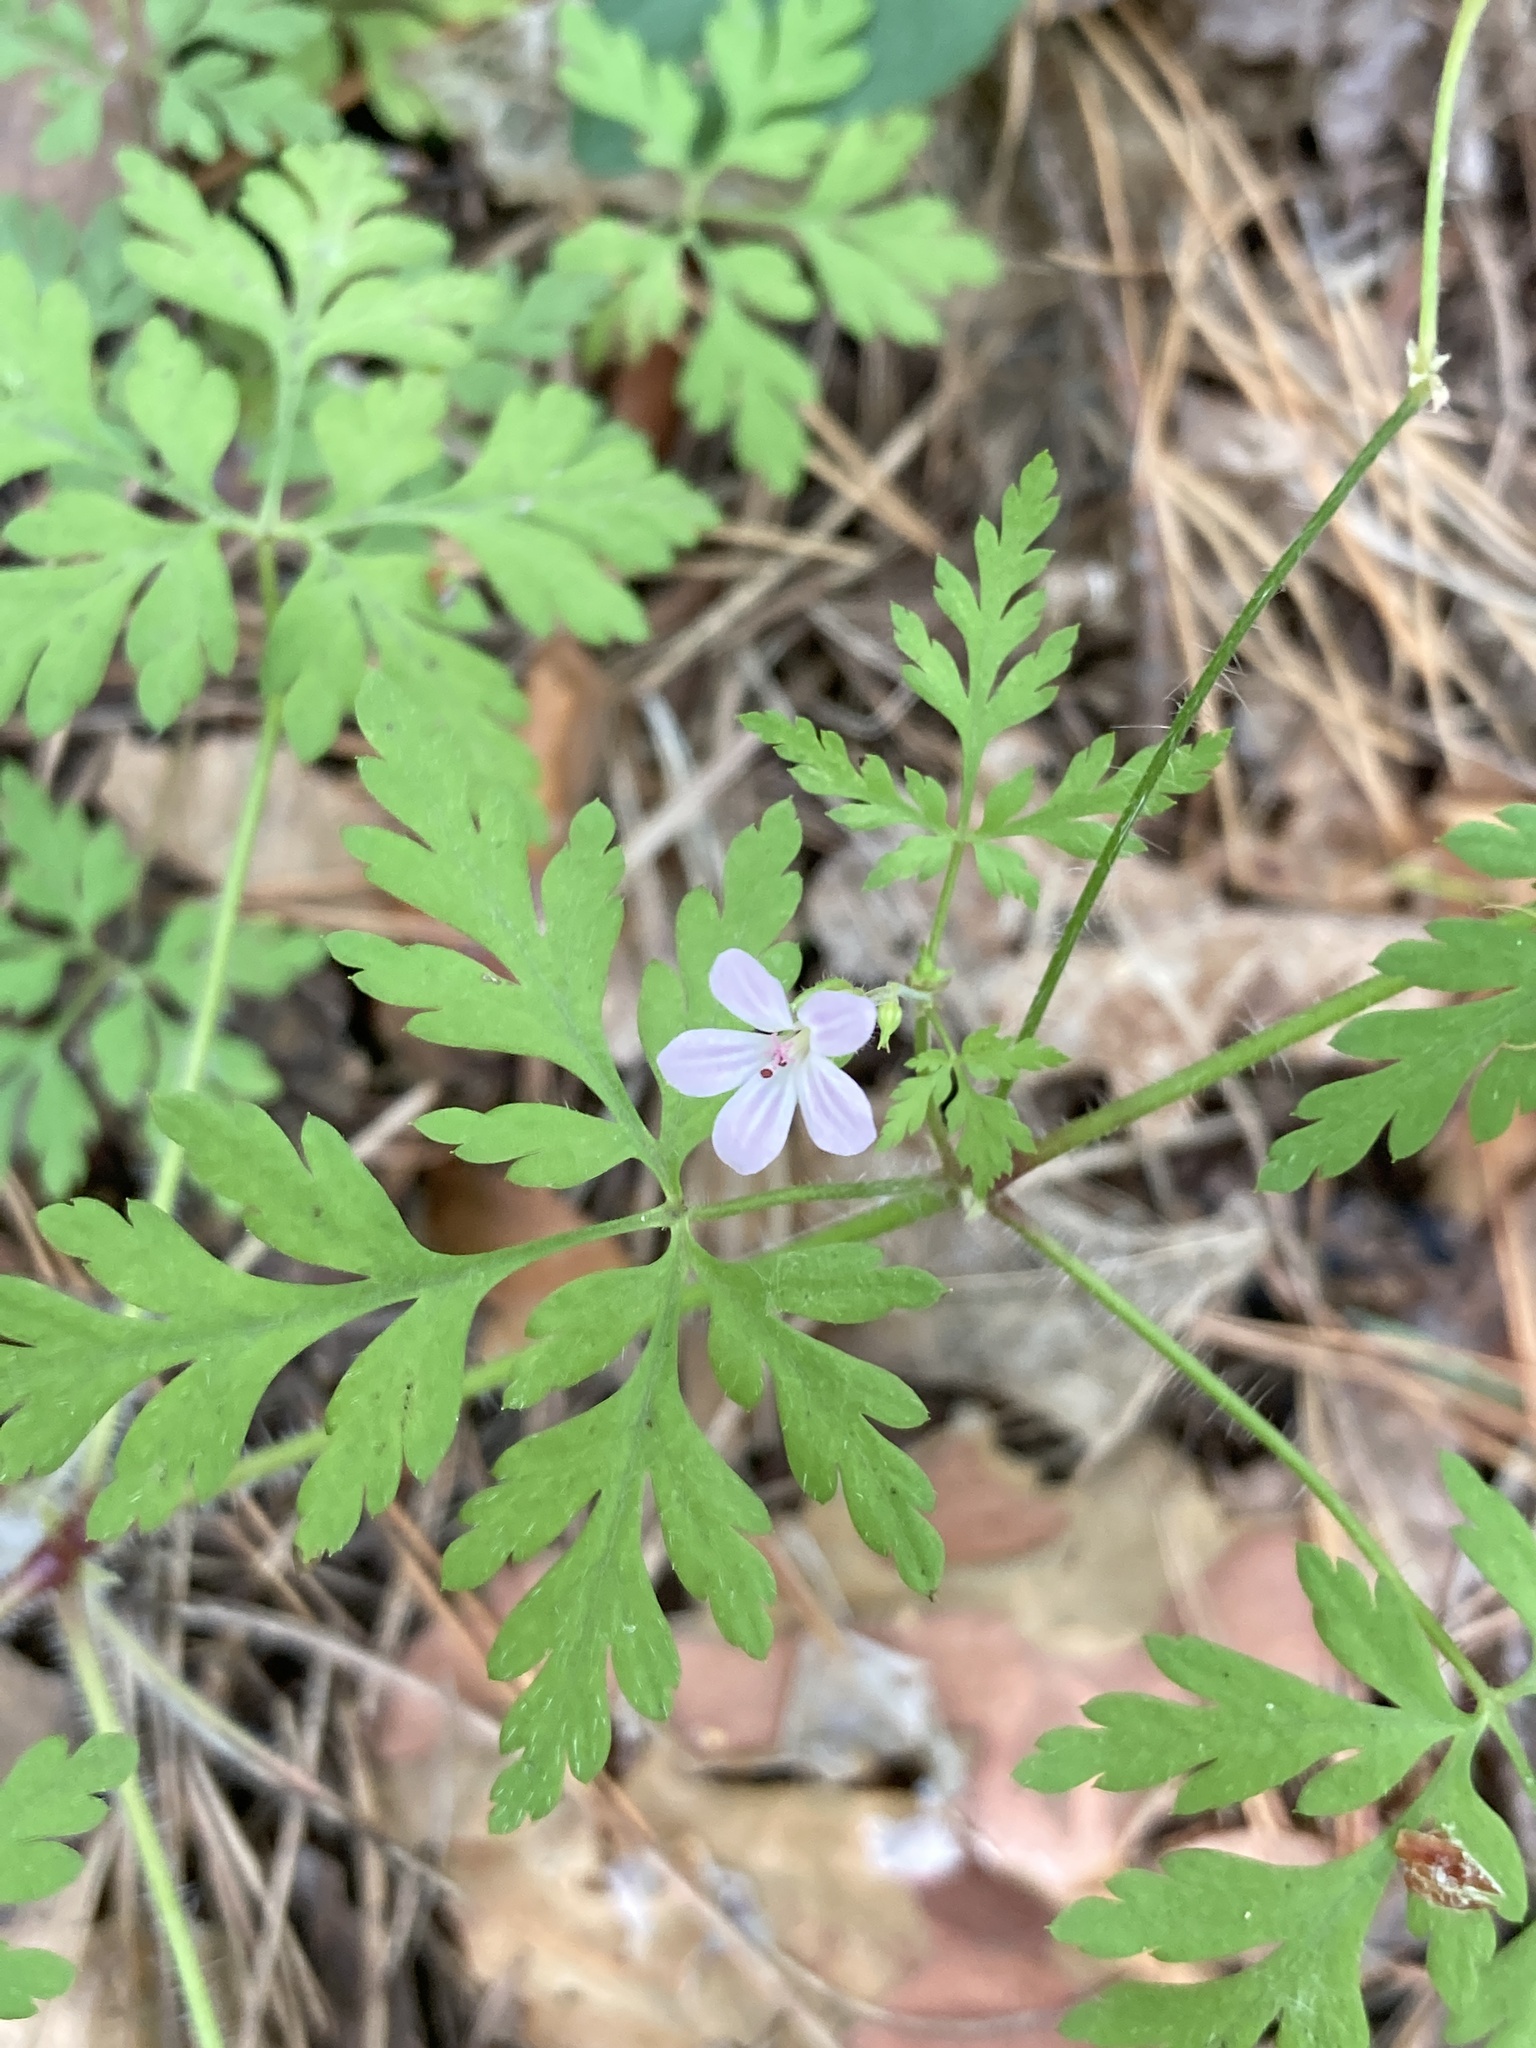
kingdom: Plantae
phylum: Tracheophyta
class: Magnoliopsida
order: Geraniales
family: Geraniaceae
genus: Geranium
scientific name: Geranium robertianum
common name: Herb-robert
